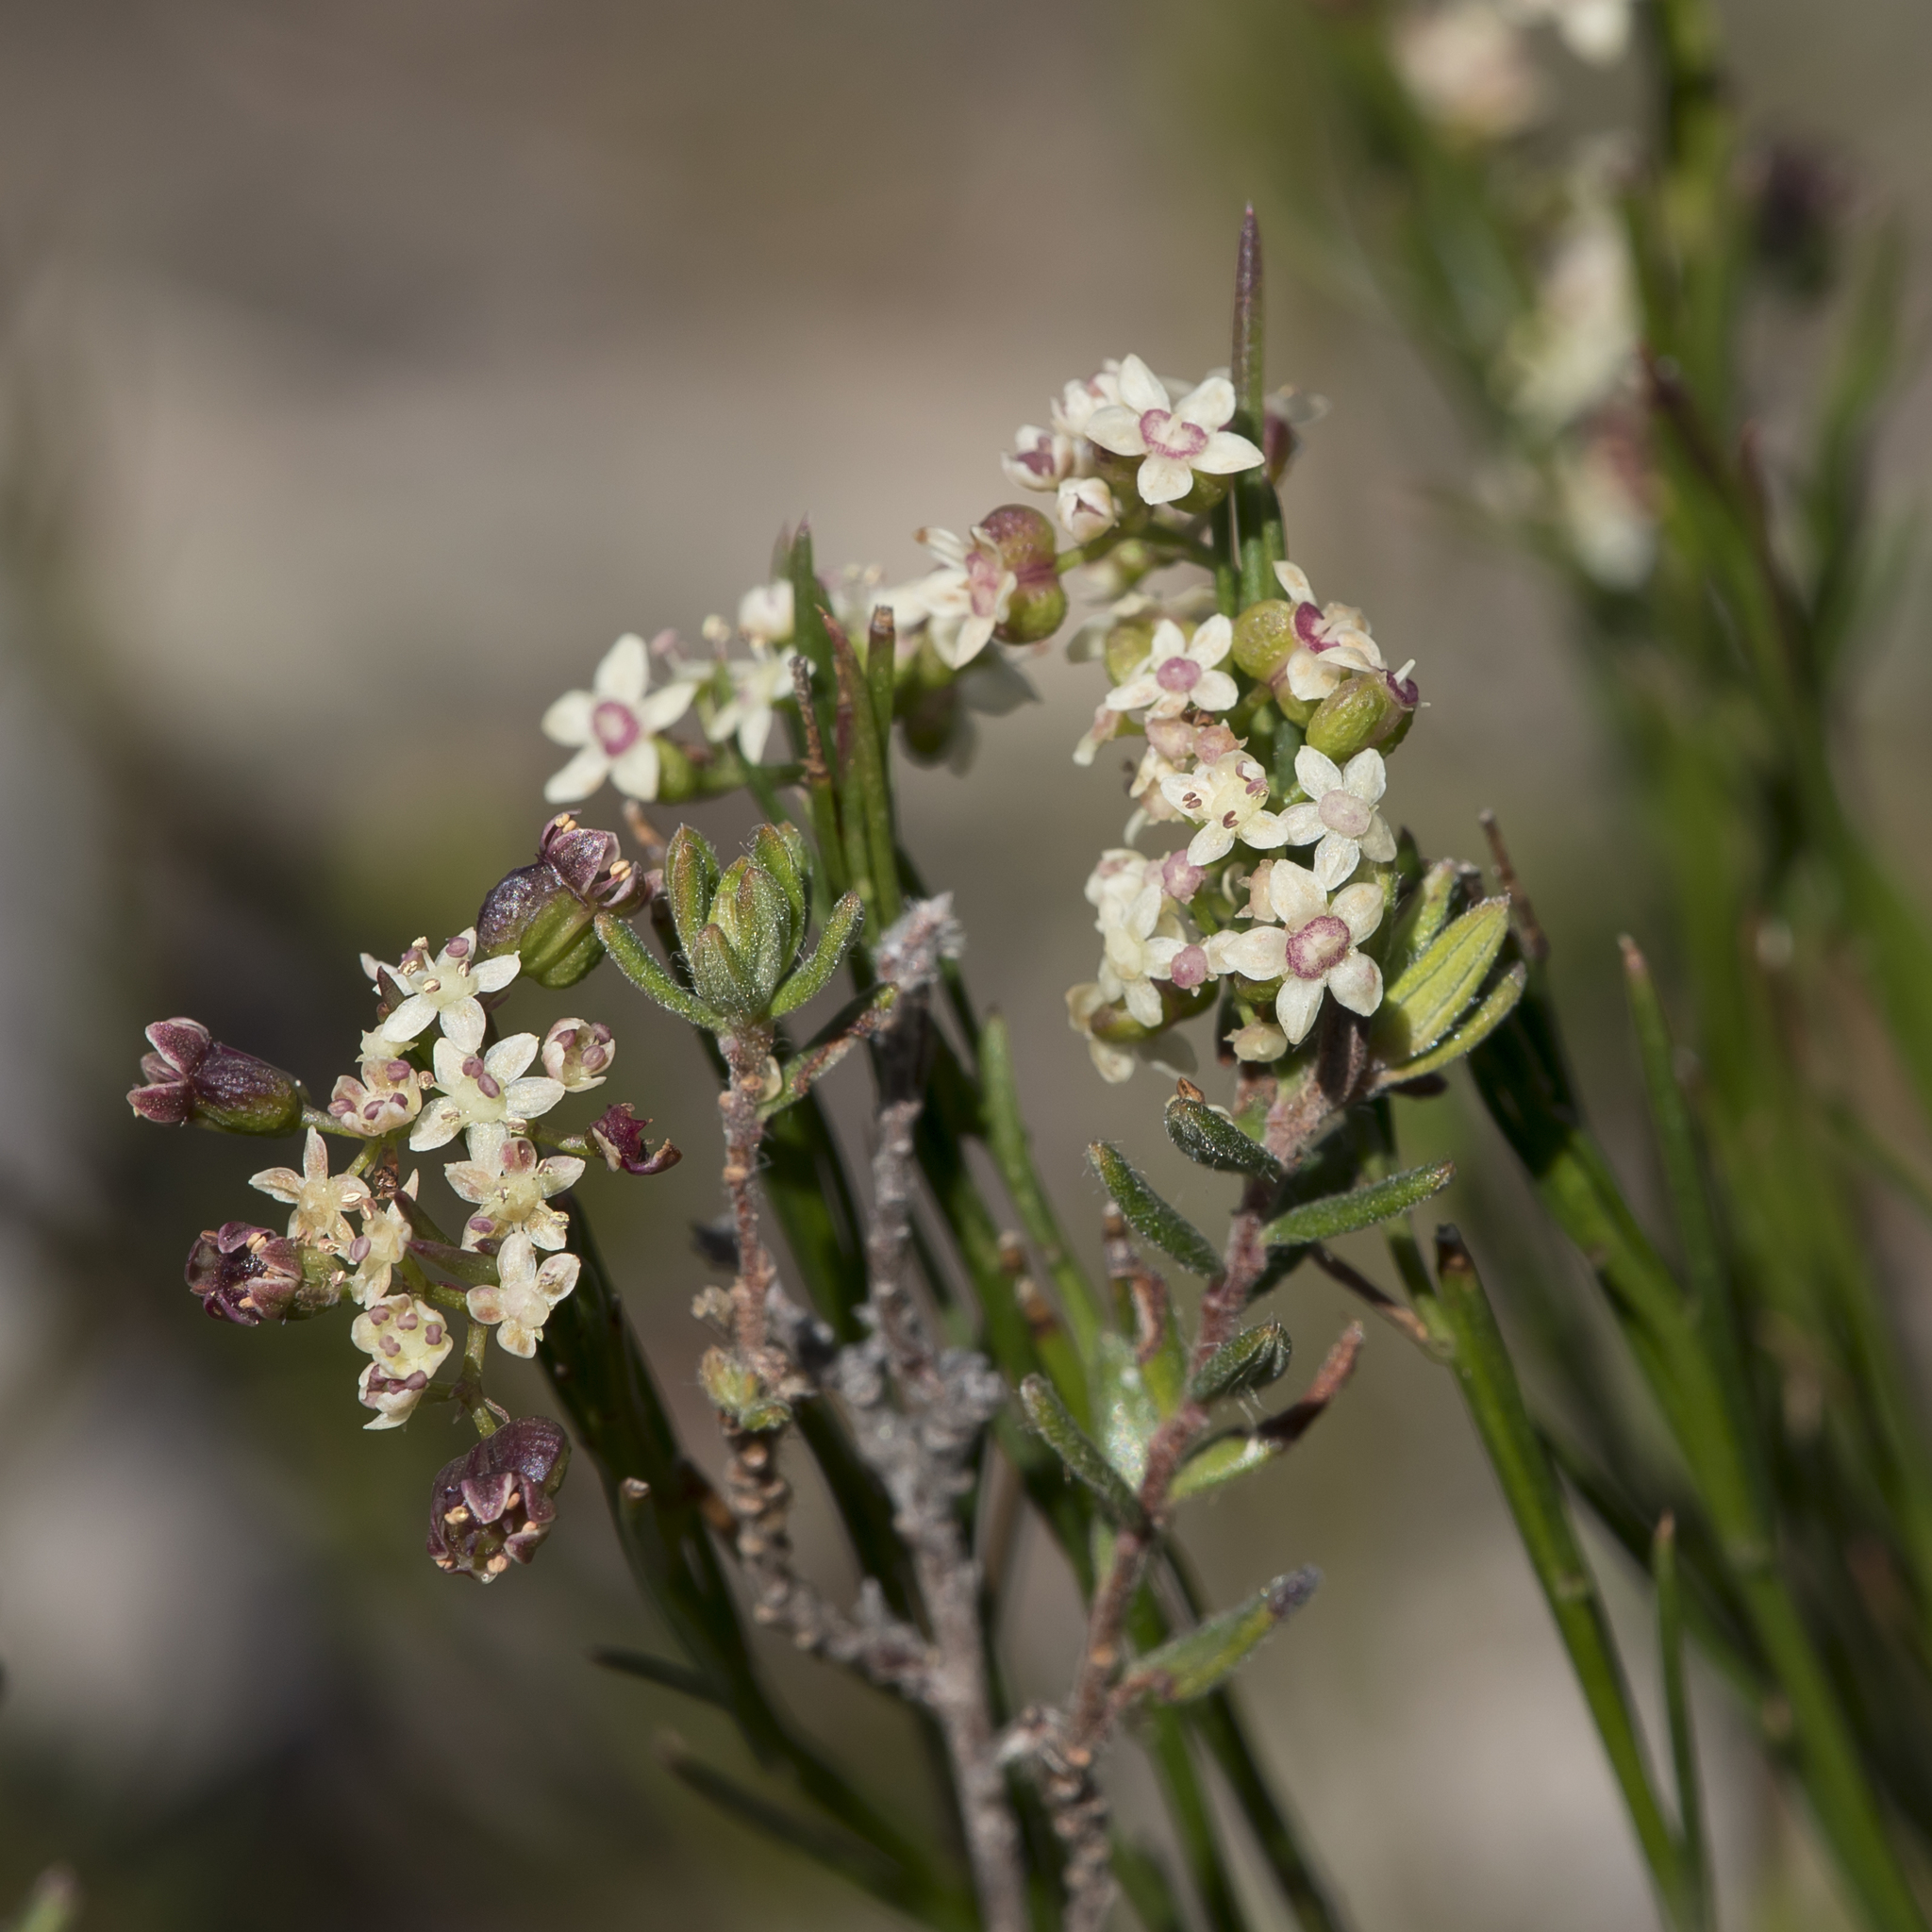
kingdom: Plantae
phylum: Tracheophyta
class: Magnoliopsida
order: Apiales
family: Apiaceae
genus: Platysace
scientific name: Platysace heterophylla
